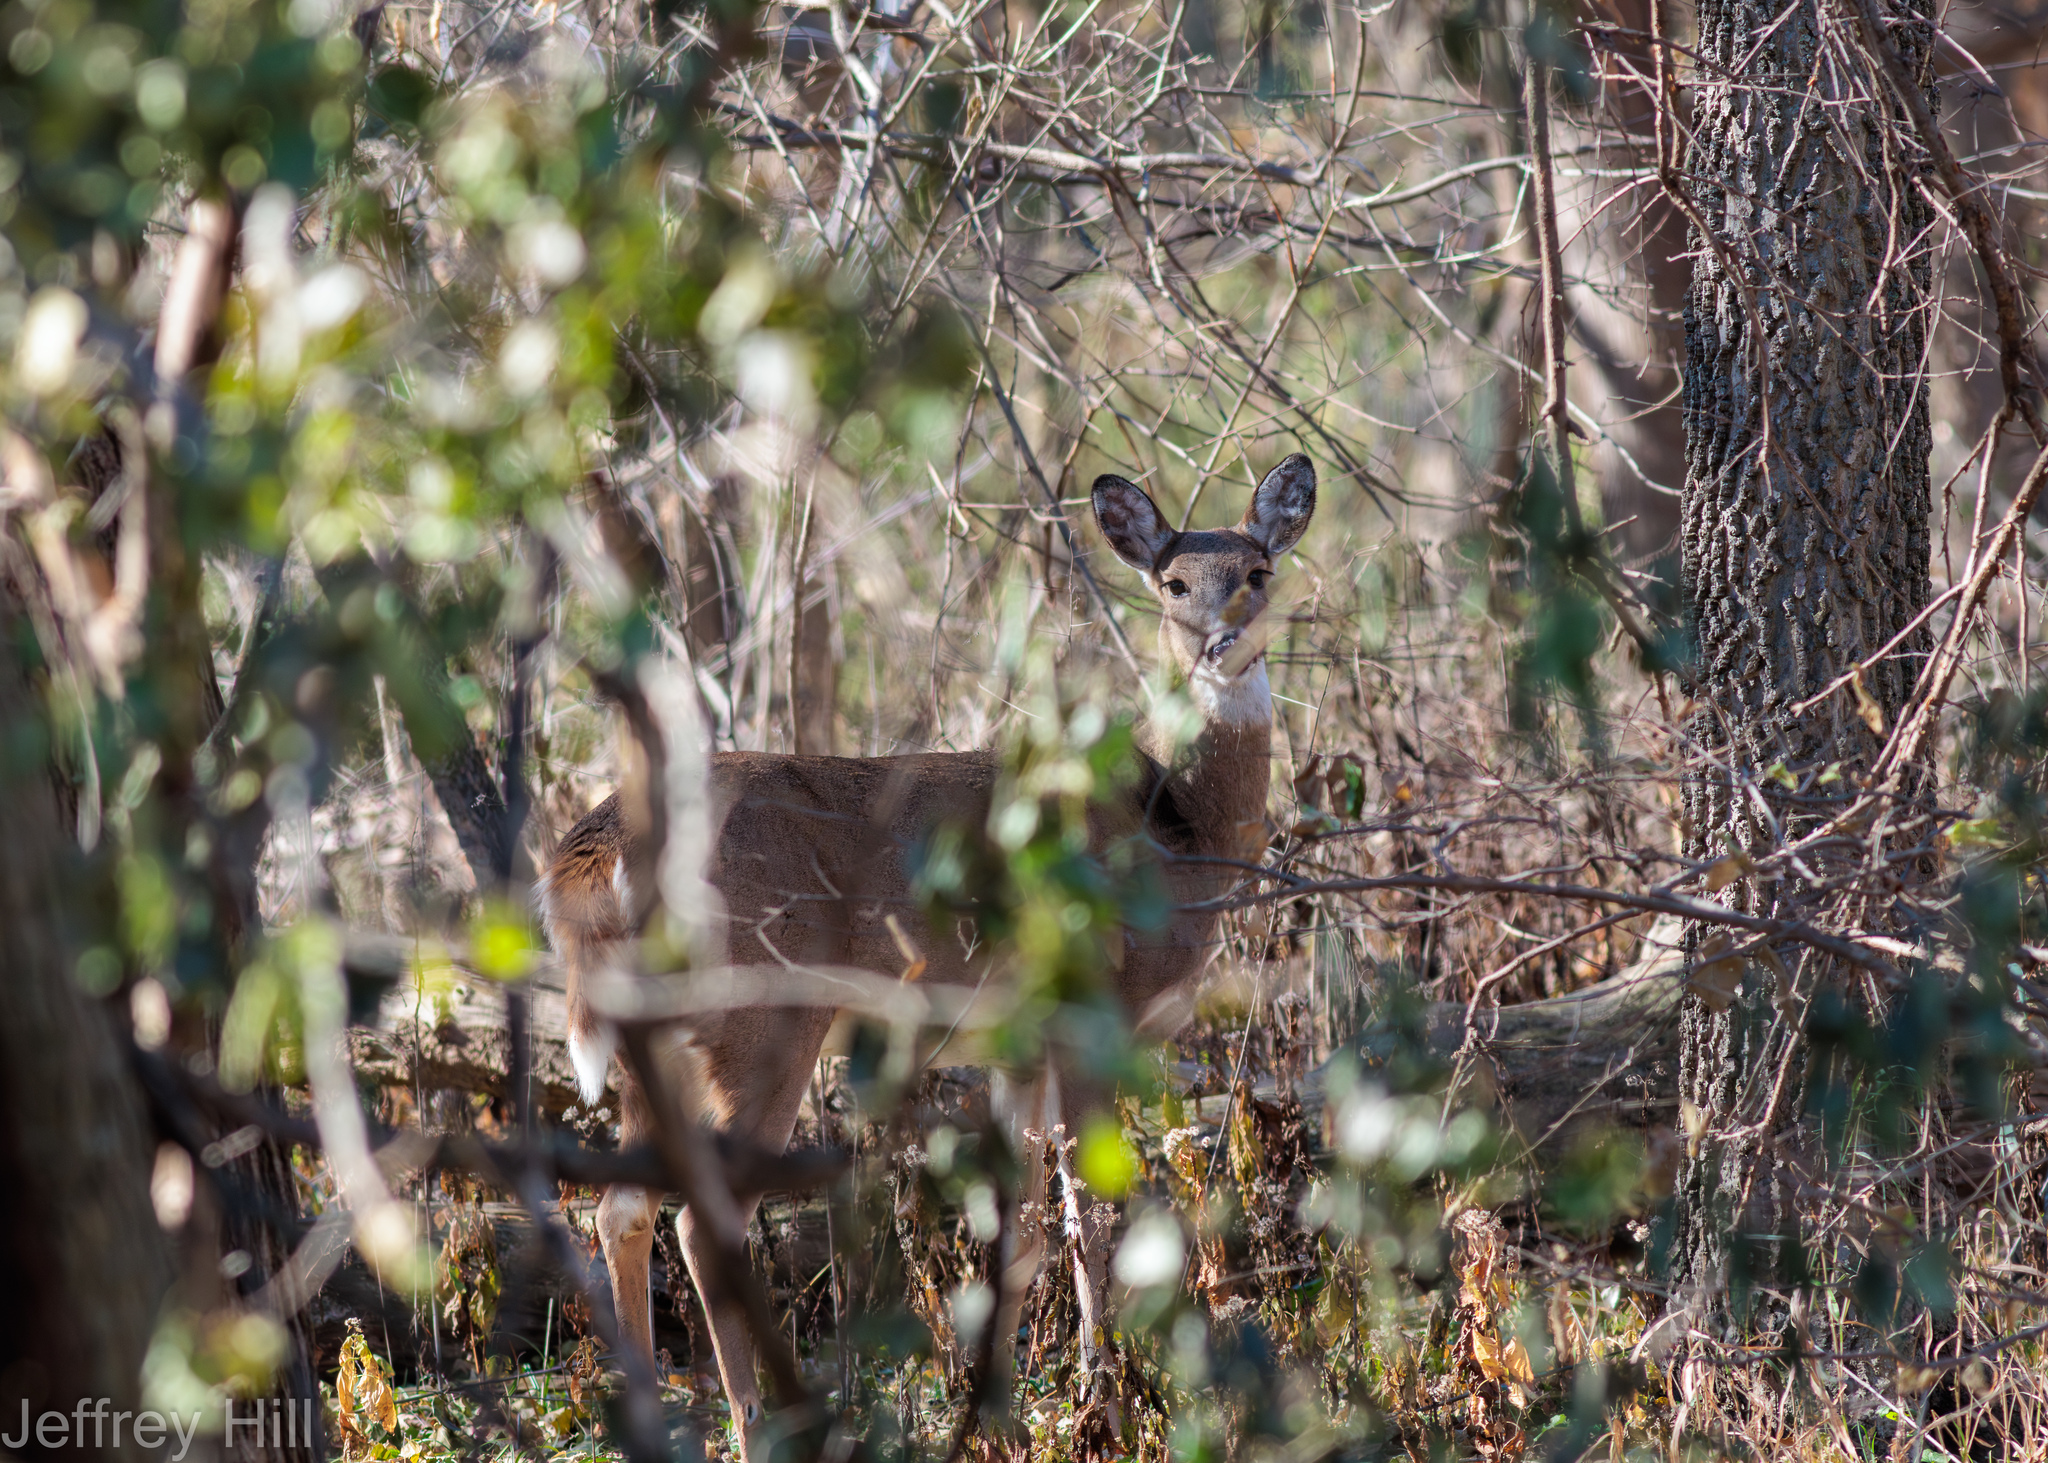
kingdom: Animalia
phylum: Chordata
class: Mammalia
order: Artiodactyla
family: Cervidae
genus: Odocoileus
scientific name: Odocoileus virginianus
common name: White-tailed deer
